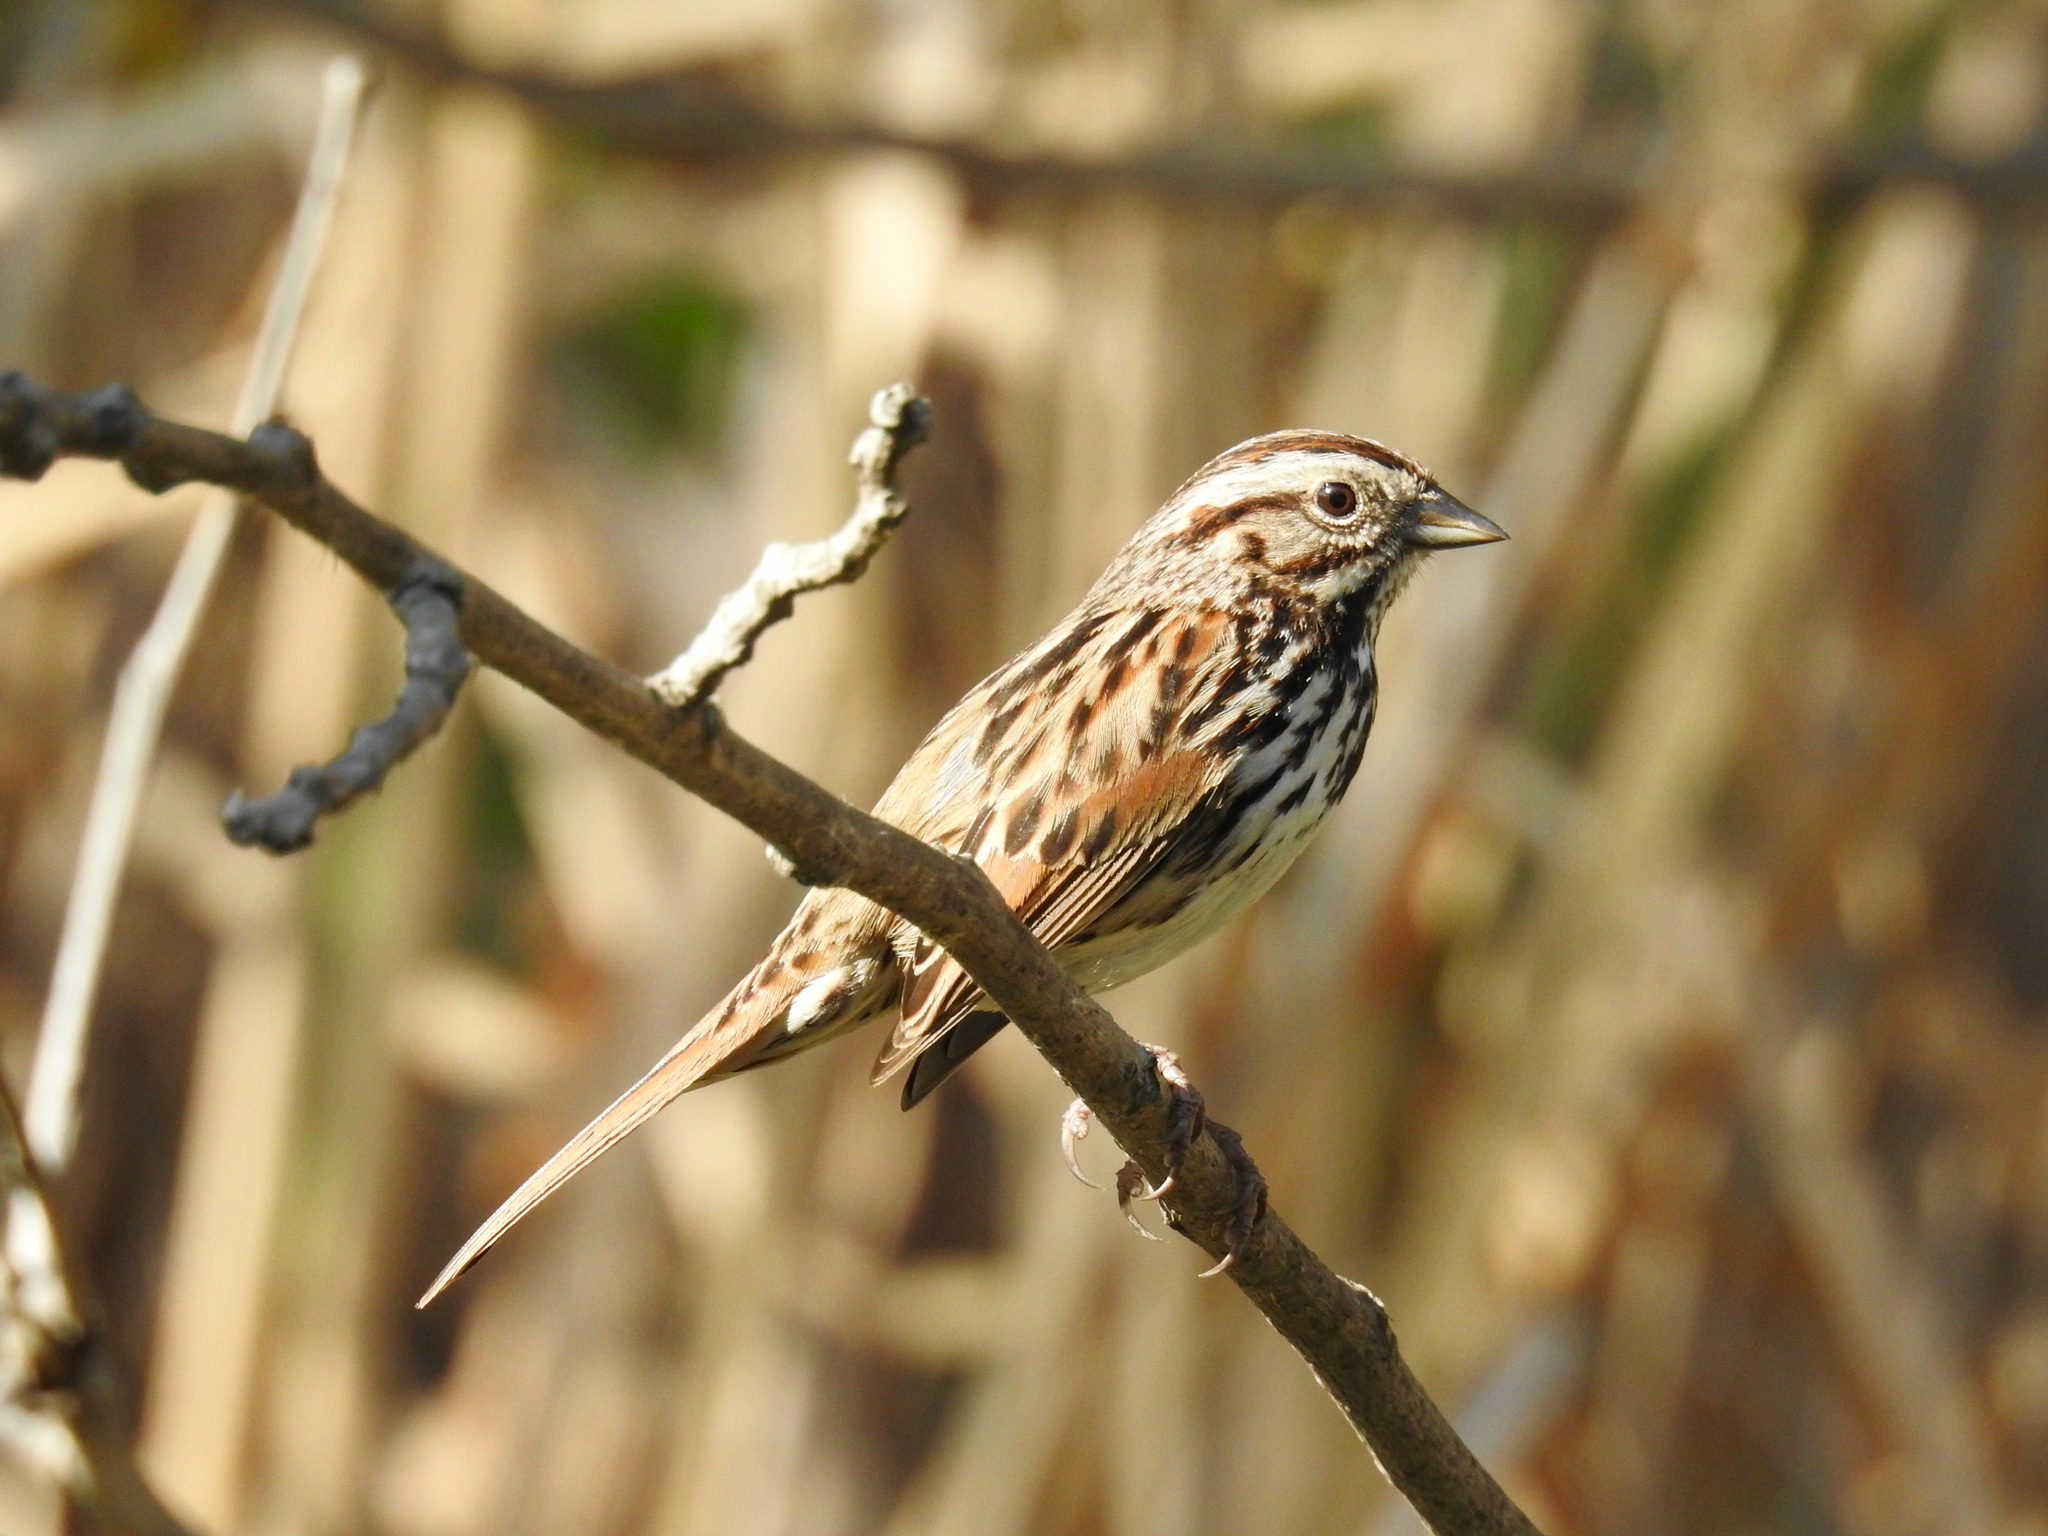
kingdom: Animalia
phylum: Chordata
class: Aves
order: Passeriformes
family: Passerellidae
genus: Melospiza
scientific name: Melospiza melodia
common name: Song sparrow
